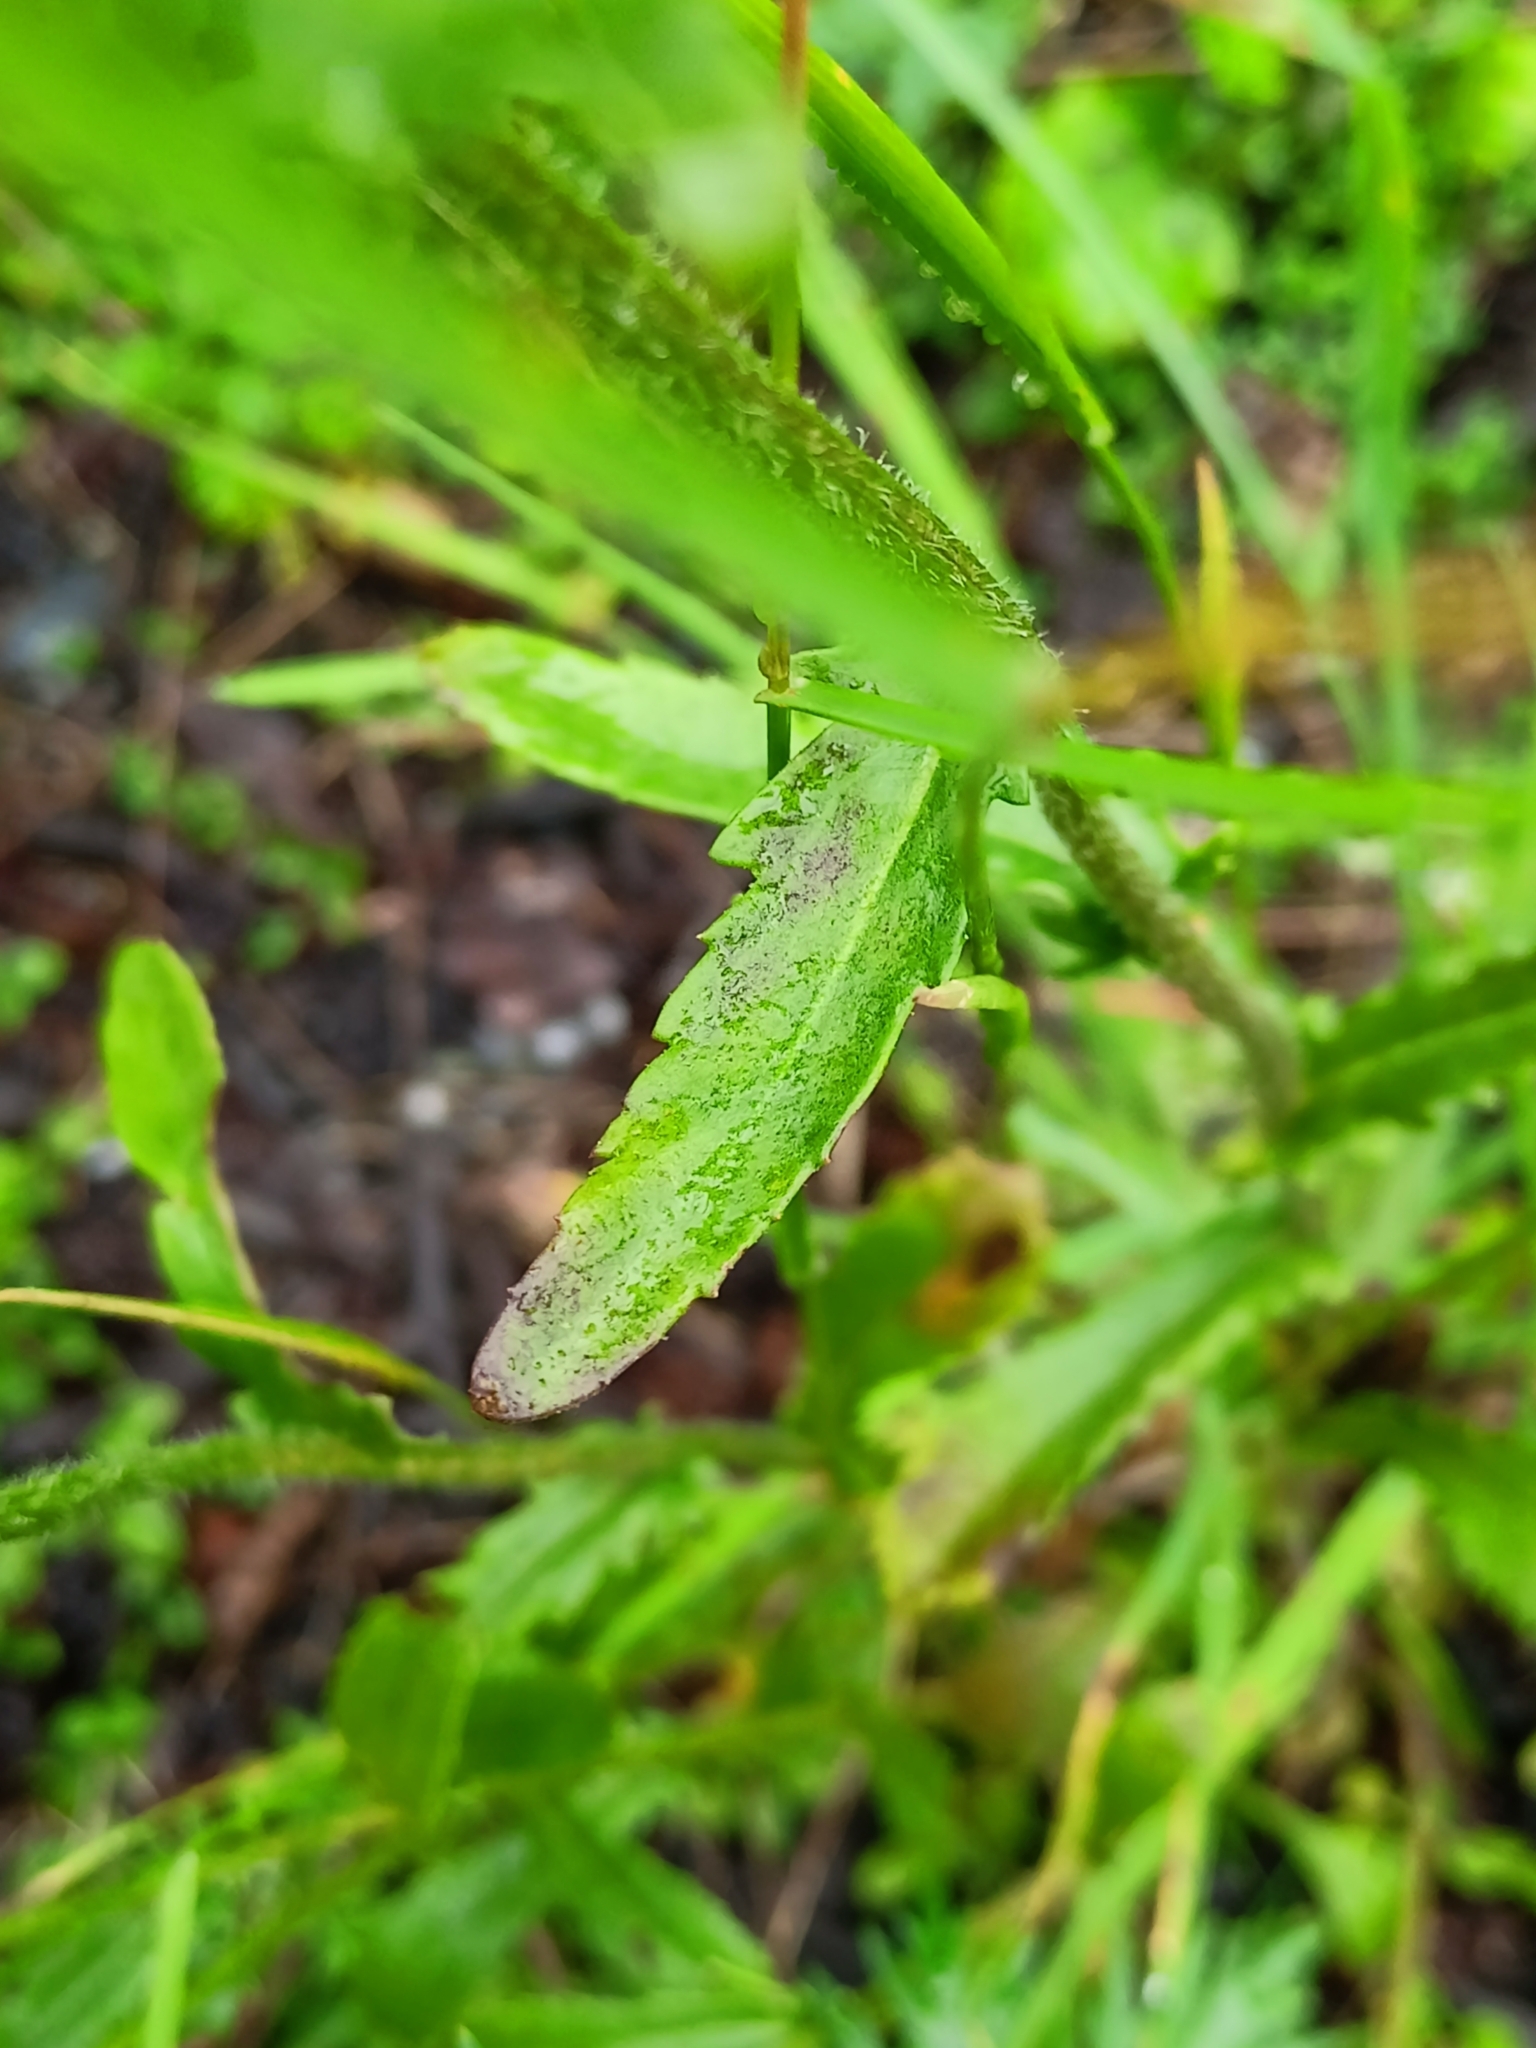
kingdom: Plantae
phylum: Tracheophyta
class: Magnoliopsida
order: Asterales
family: Asteraceae
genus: Leucanthemum
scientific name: Leucanthemum vulgare
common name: Oxeye daisy
